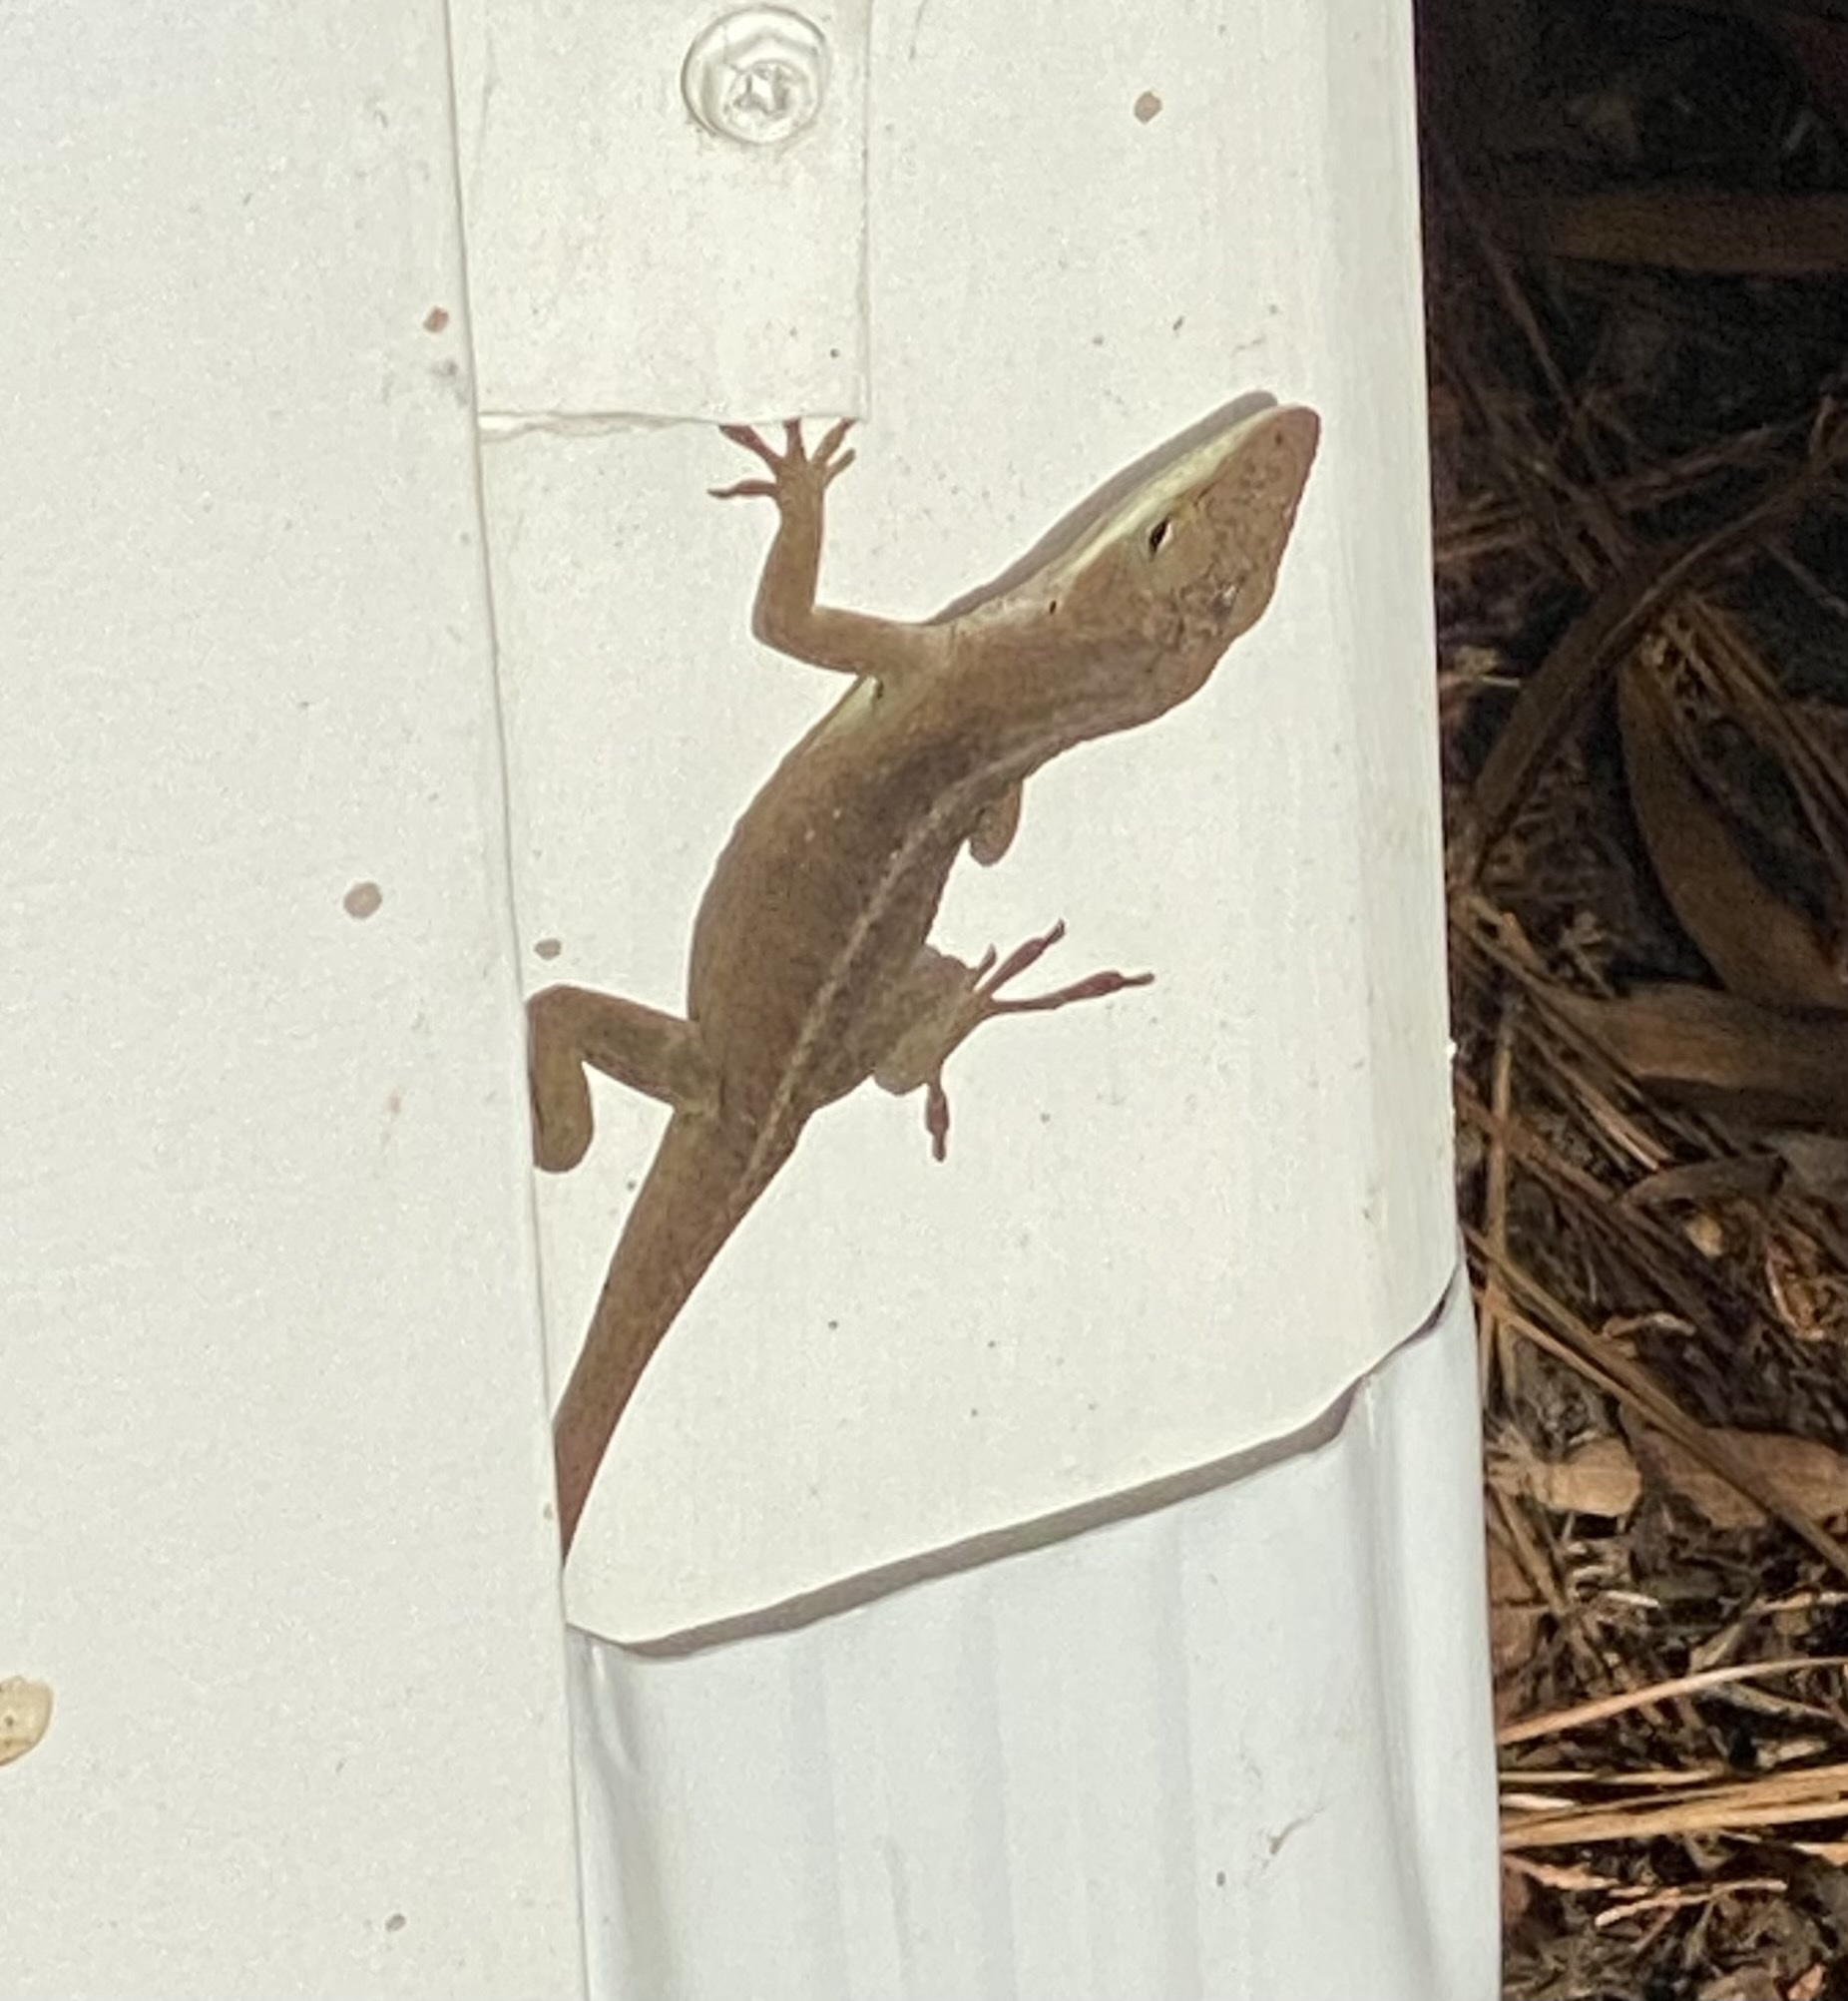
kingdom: Animalia
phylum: Chordata
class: Squamata
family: Dactyloidae
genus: Anolis
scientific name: Anolis carolinensis
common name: Green anole
